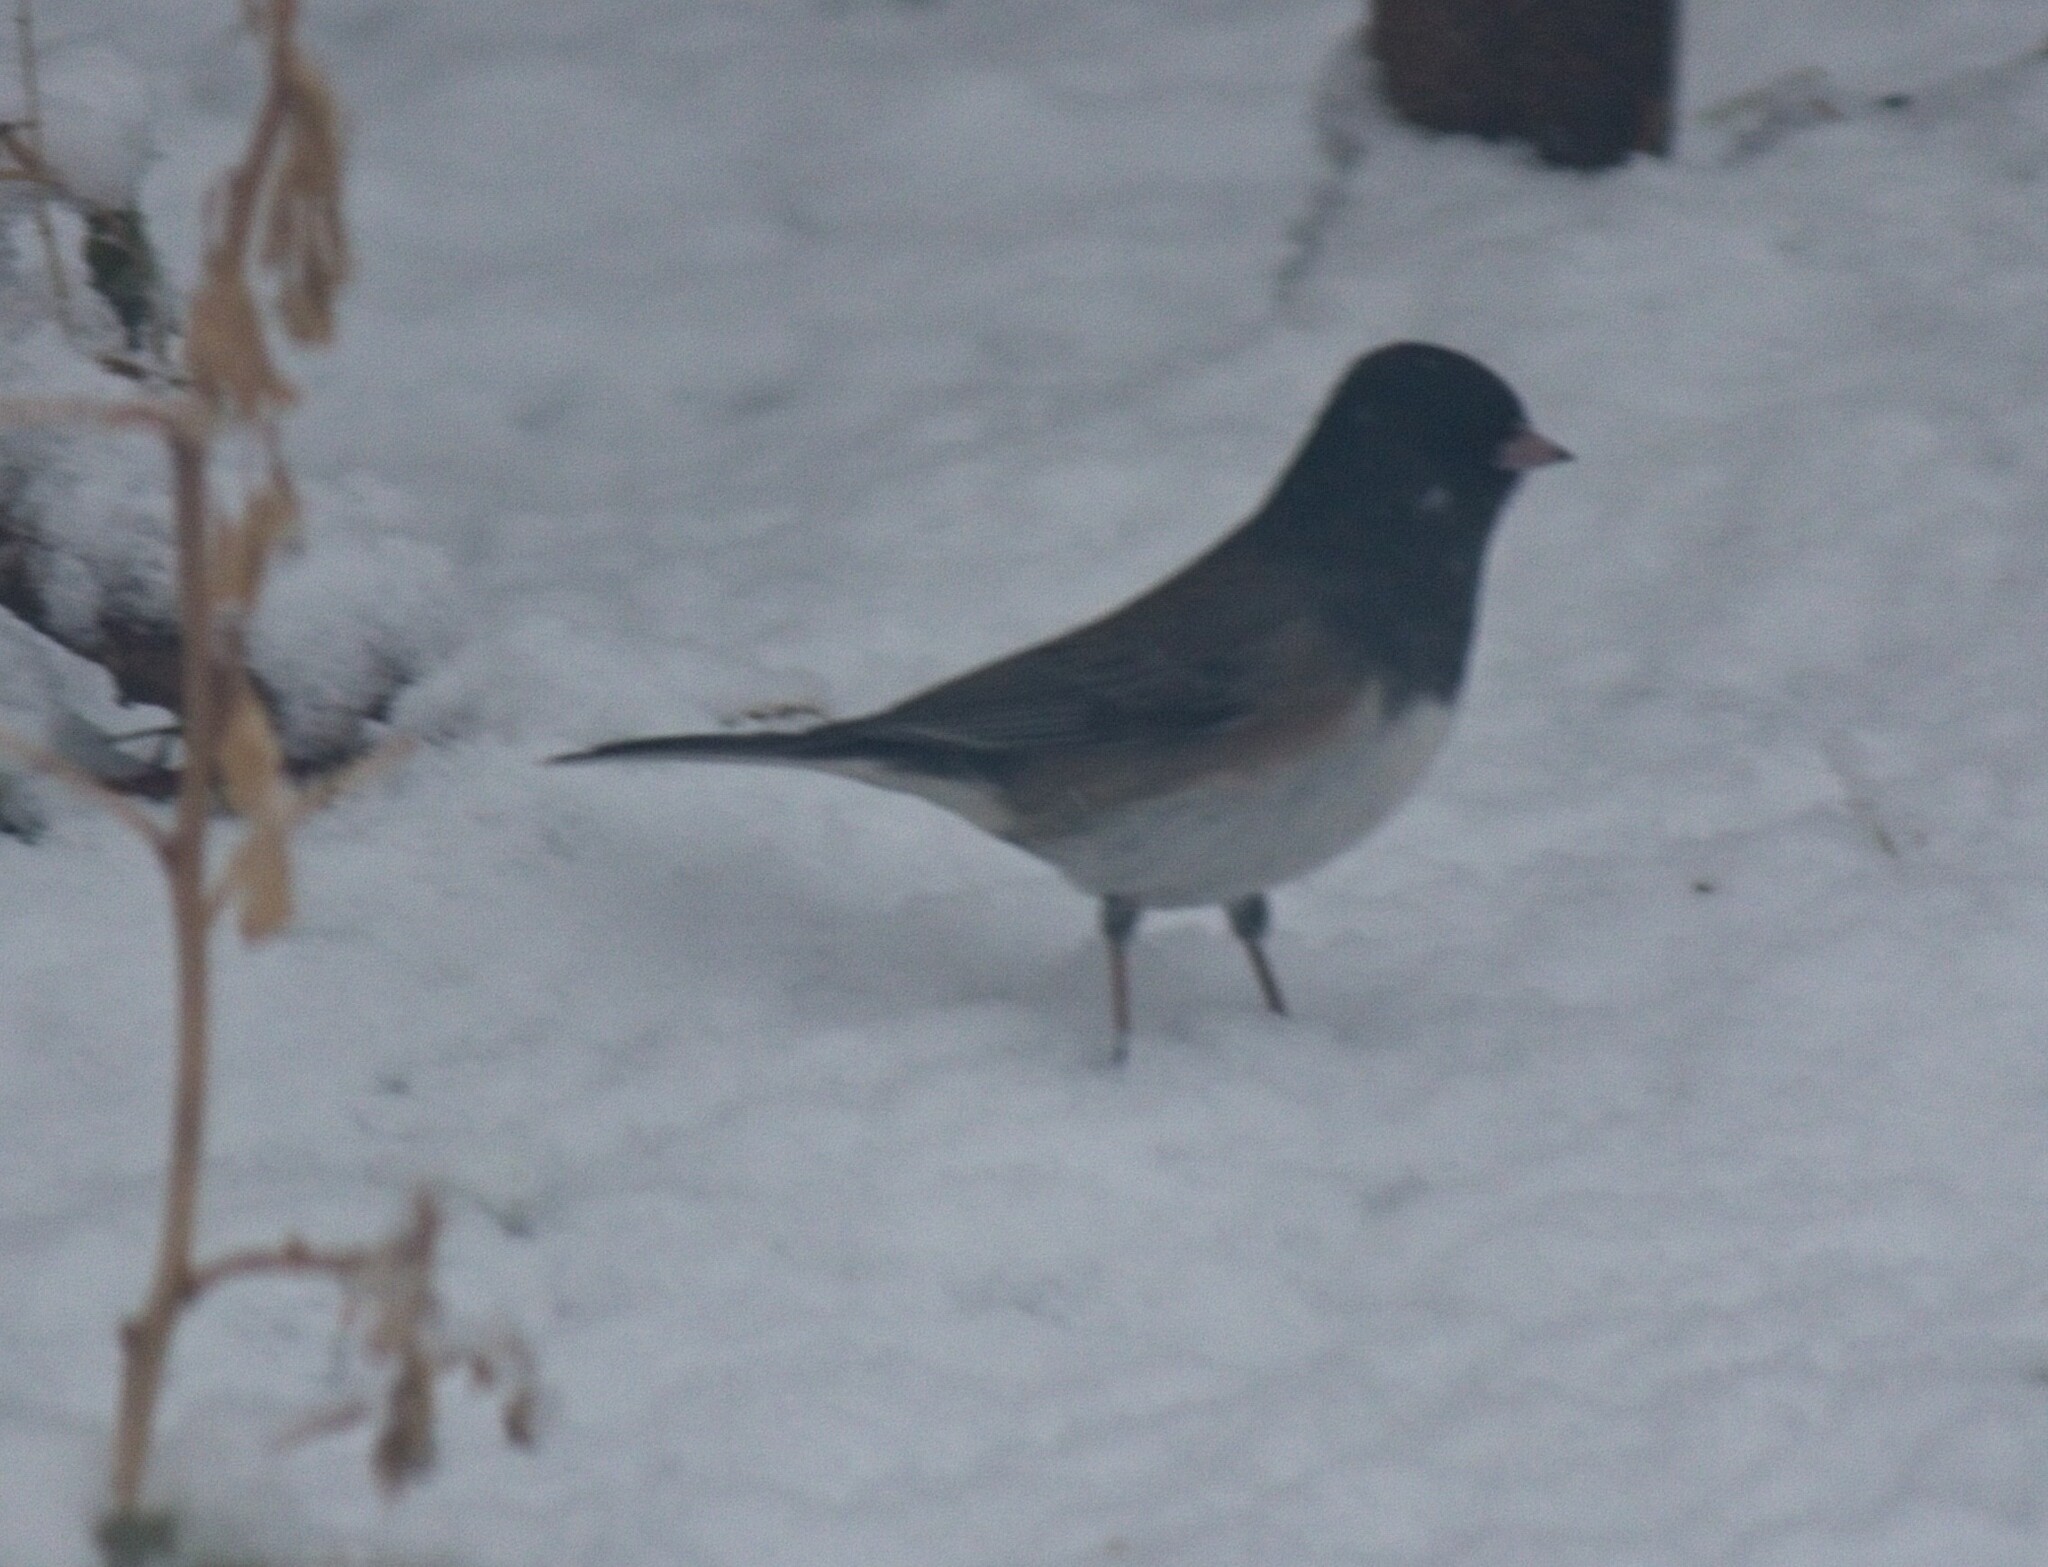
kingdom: Animalia
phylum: Chordata
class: Aves
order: Passeriformes
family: Passerellidae
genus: Junco
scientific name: Junco hyemalis
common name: Dark-eyed junco
